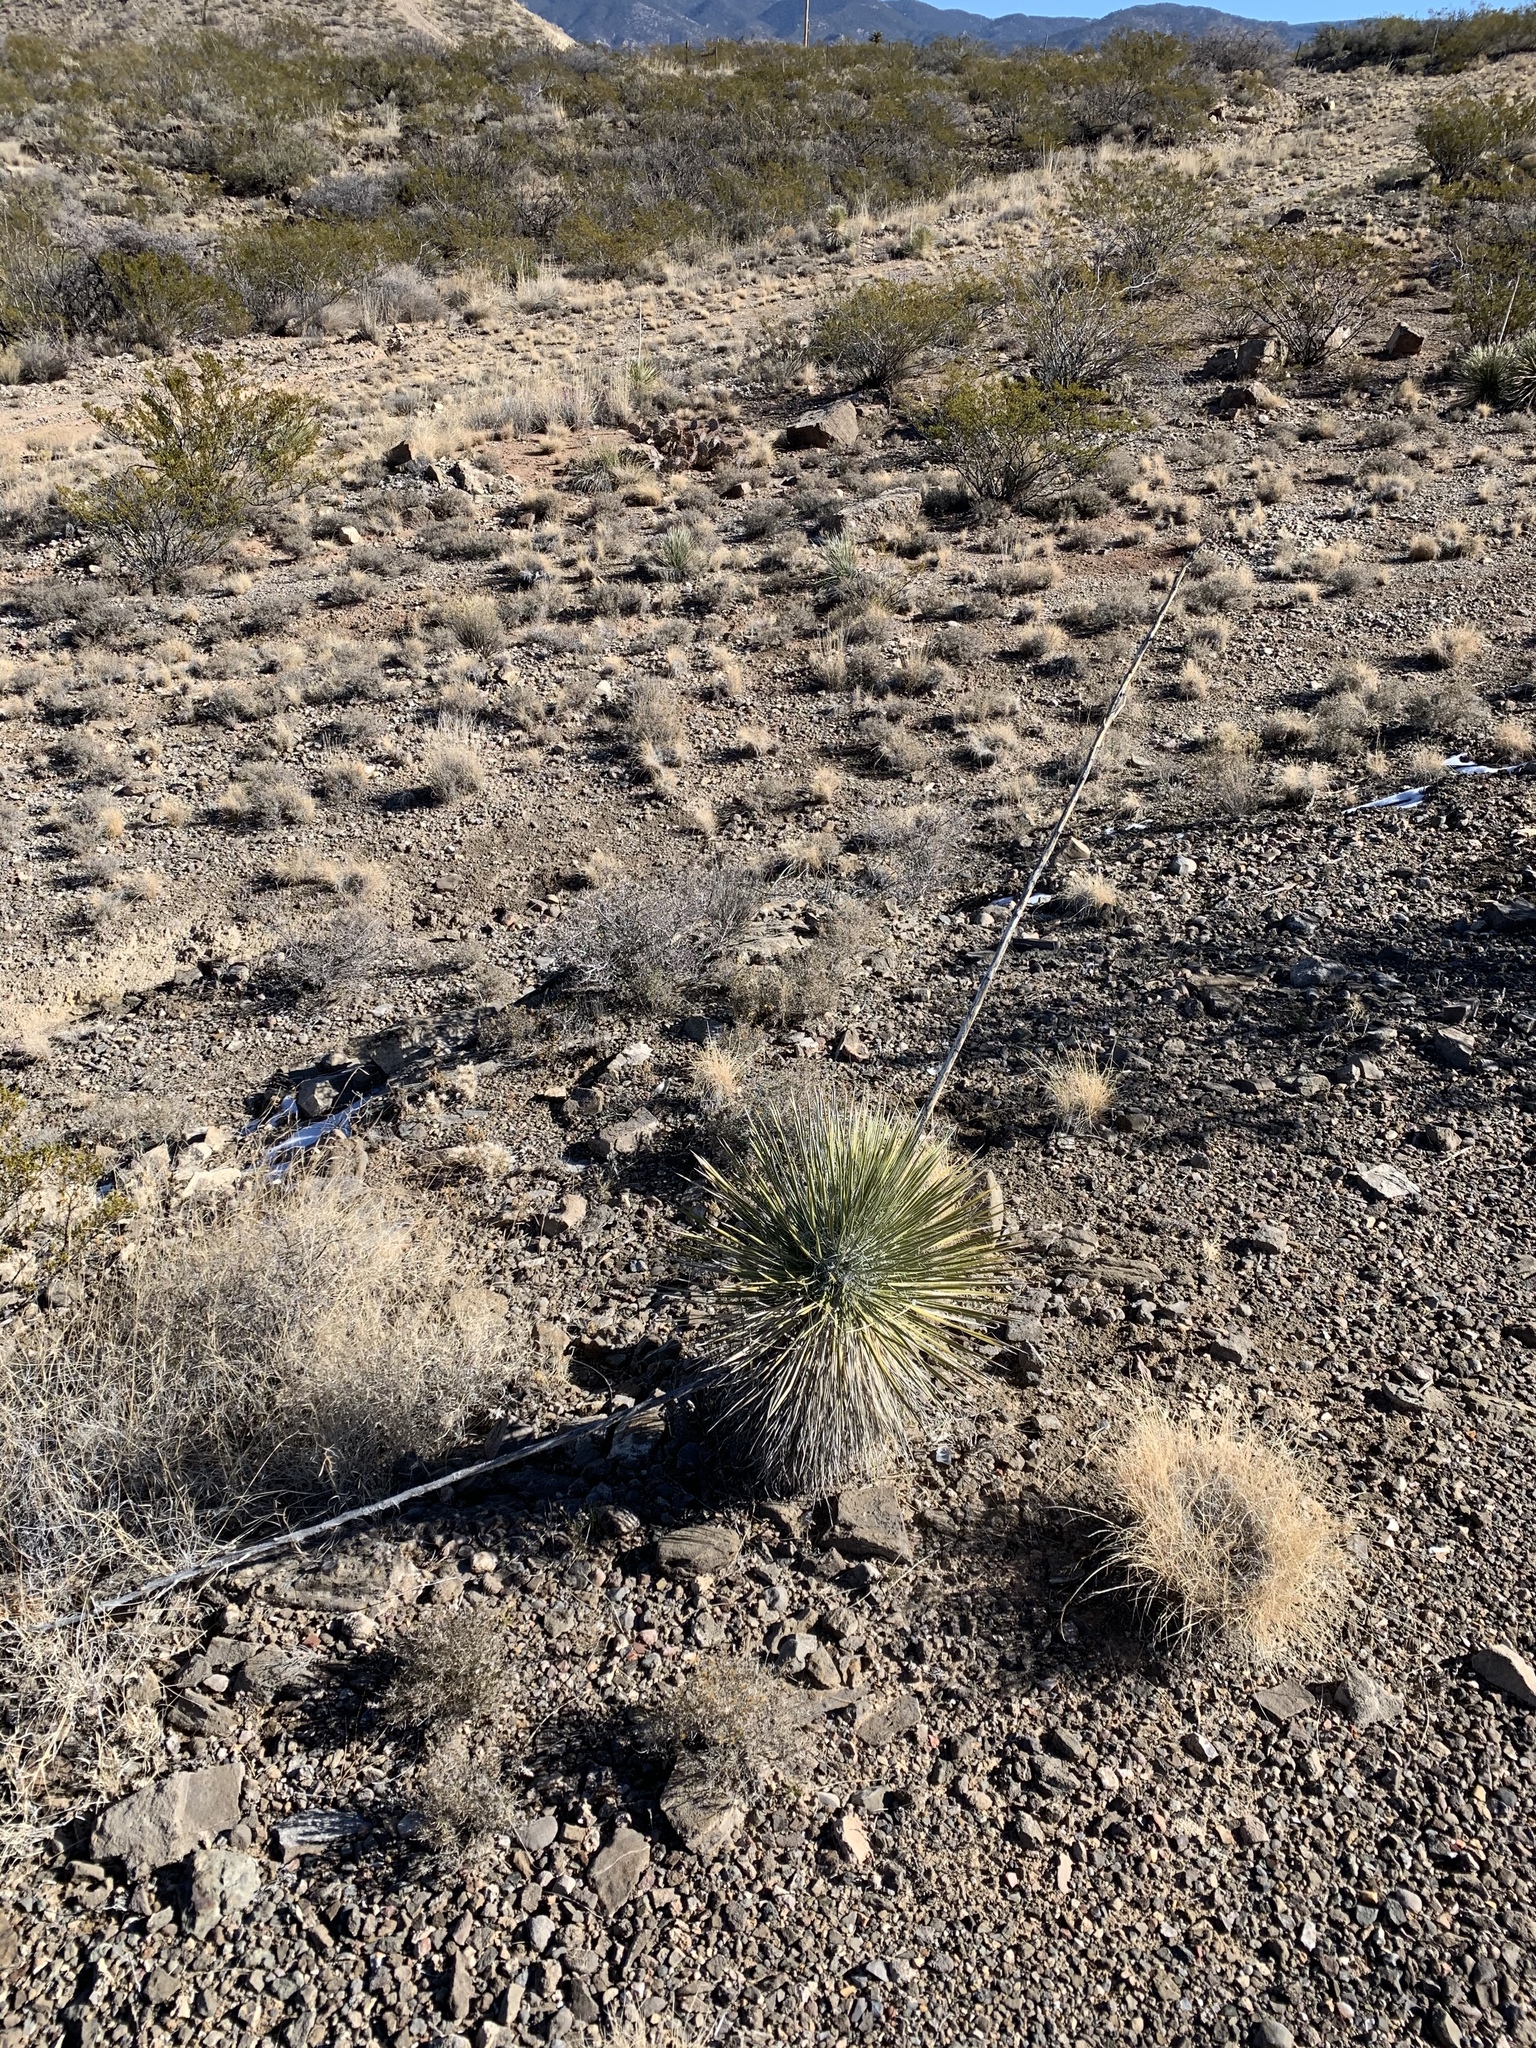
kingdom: Plantae
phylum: Tracheophyta
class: Liliopsida
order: Asparagales
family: Asparagaceae
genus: Yucca
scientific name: Yucca elata
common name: Palmella
